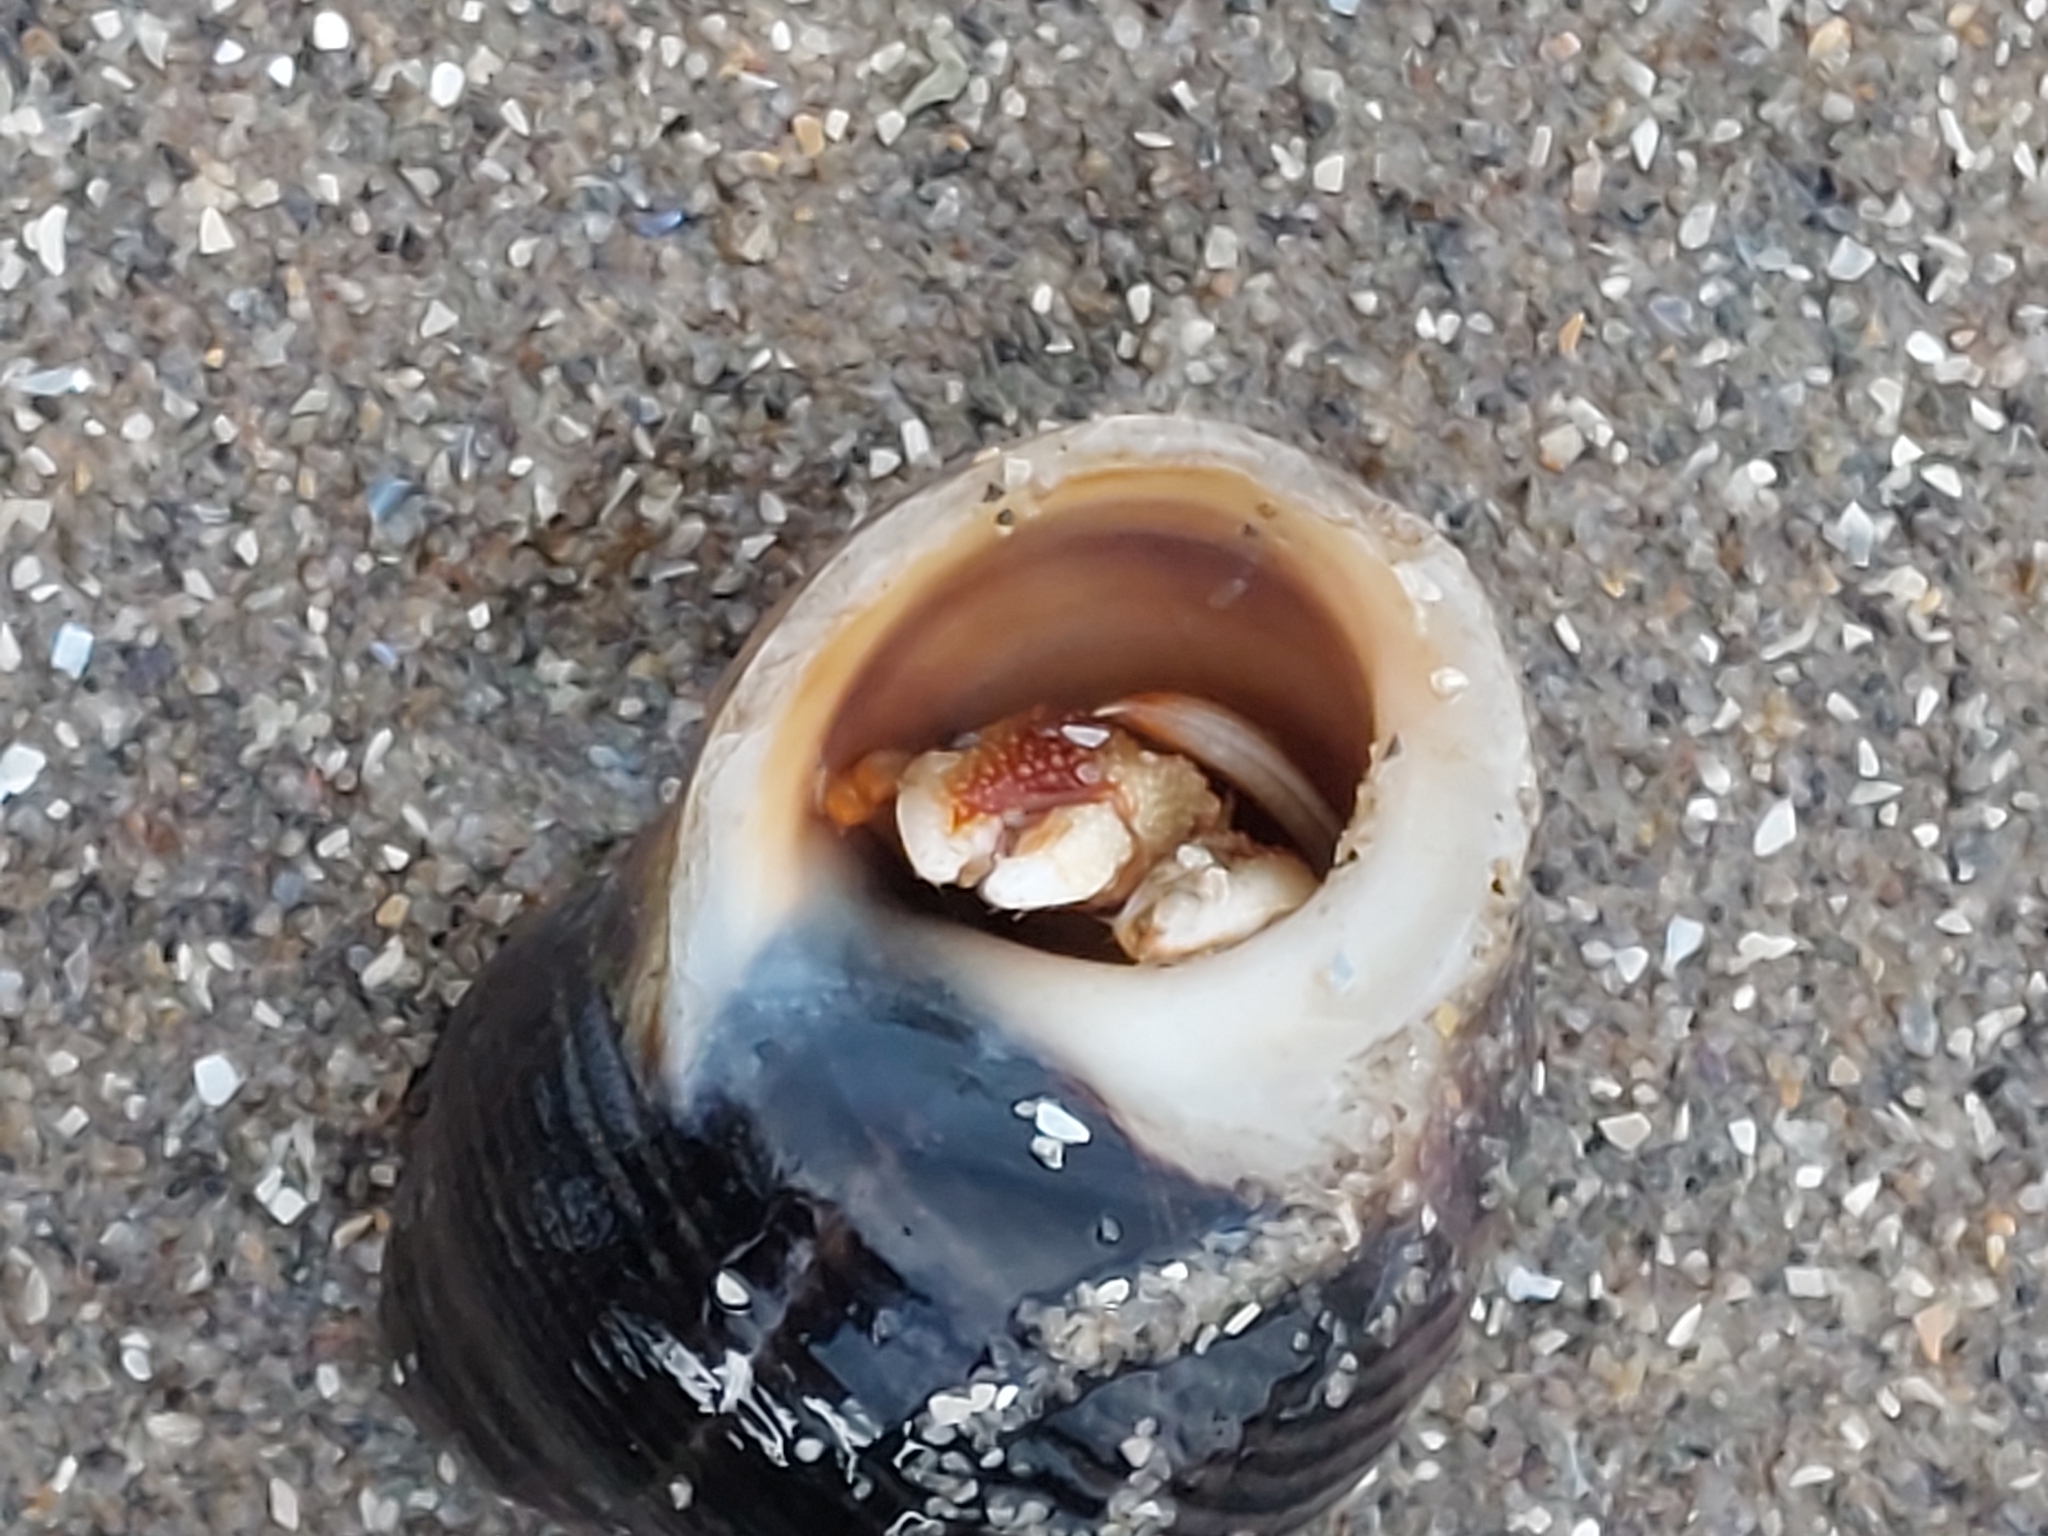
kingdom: Animalia
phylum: Arthropoda
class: Malacostraca
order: Decapoda
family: Paguridae
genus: Pagurus
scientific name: Pagurus bernhardus
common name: Hermit crab
